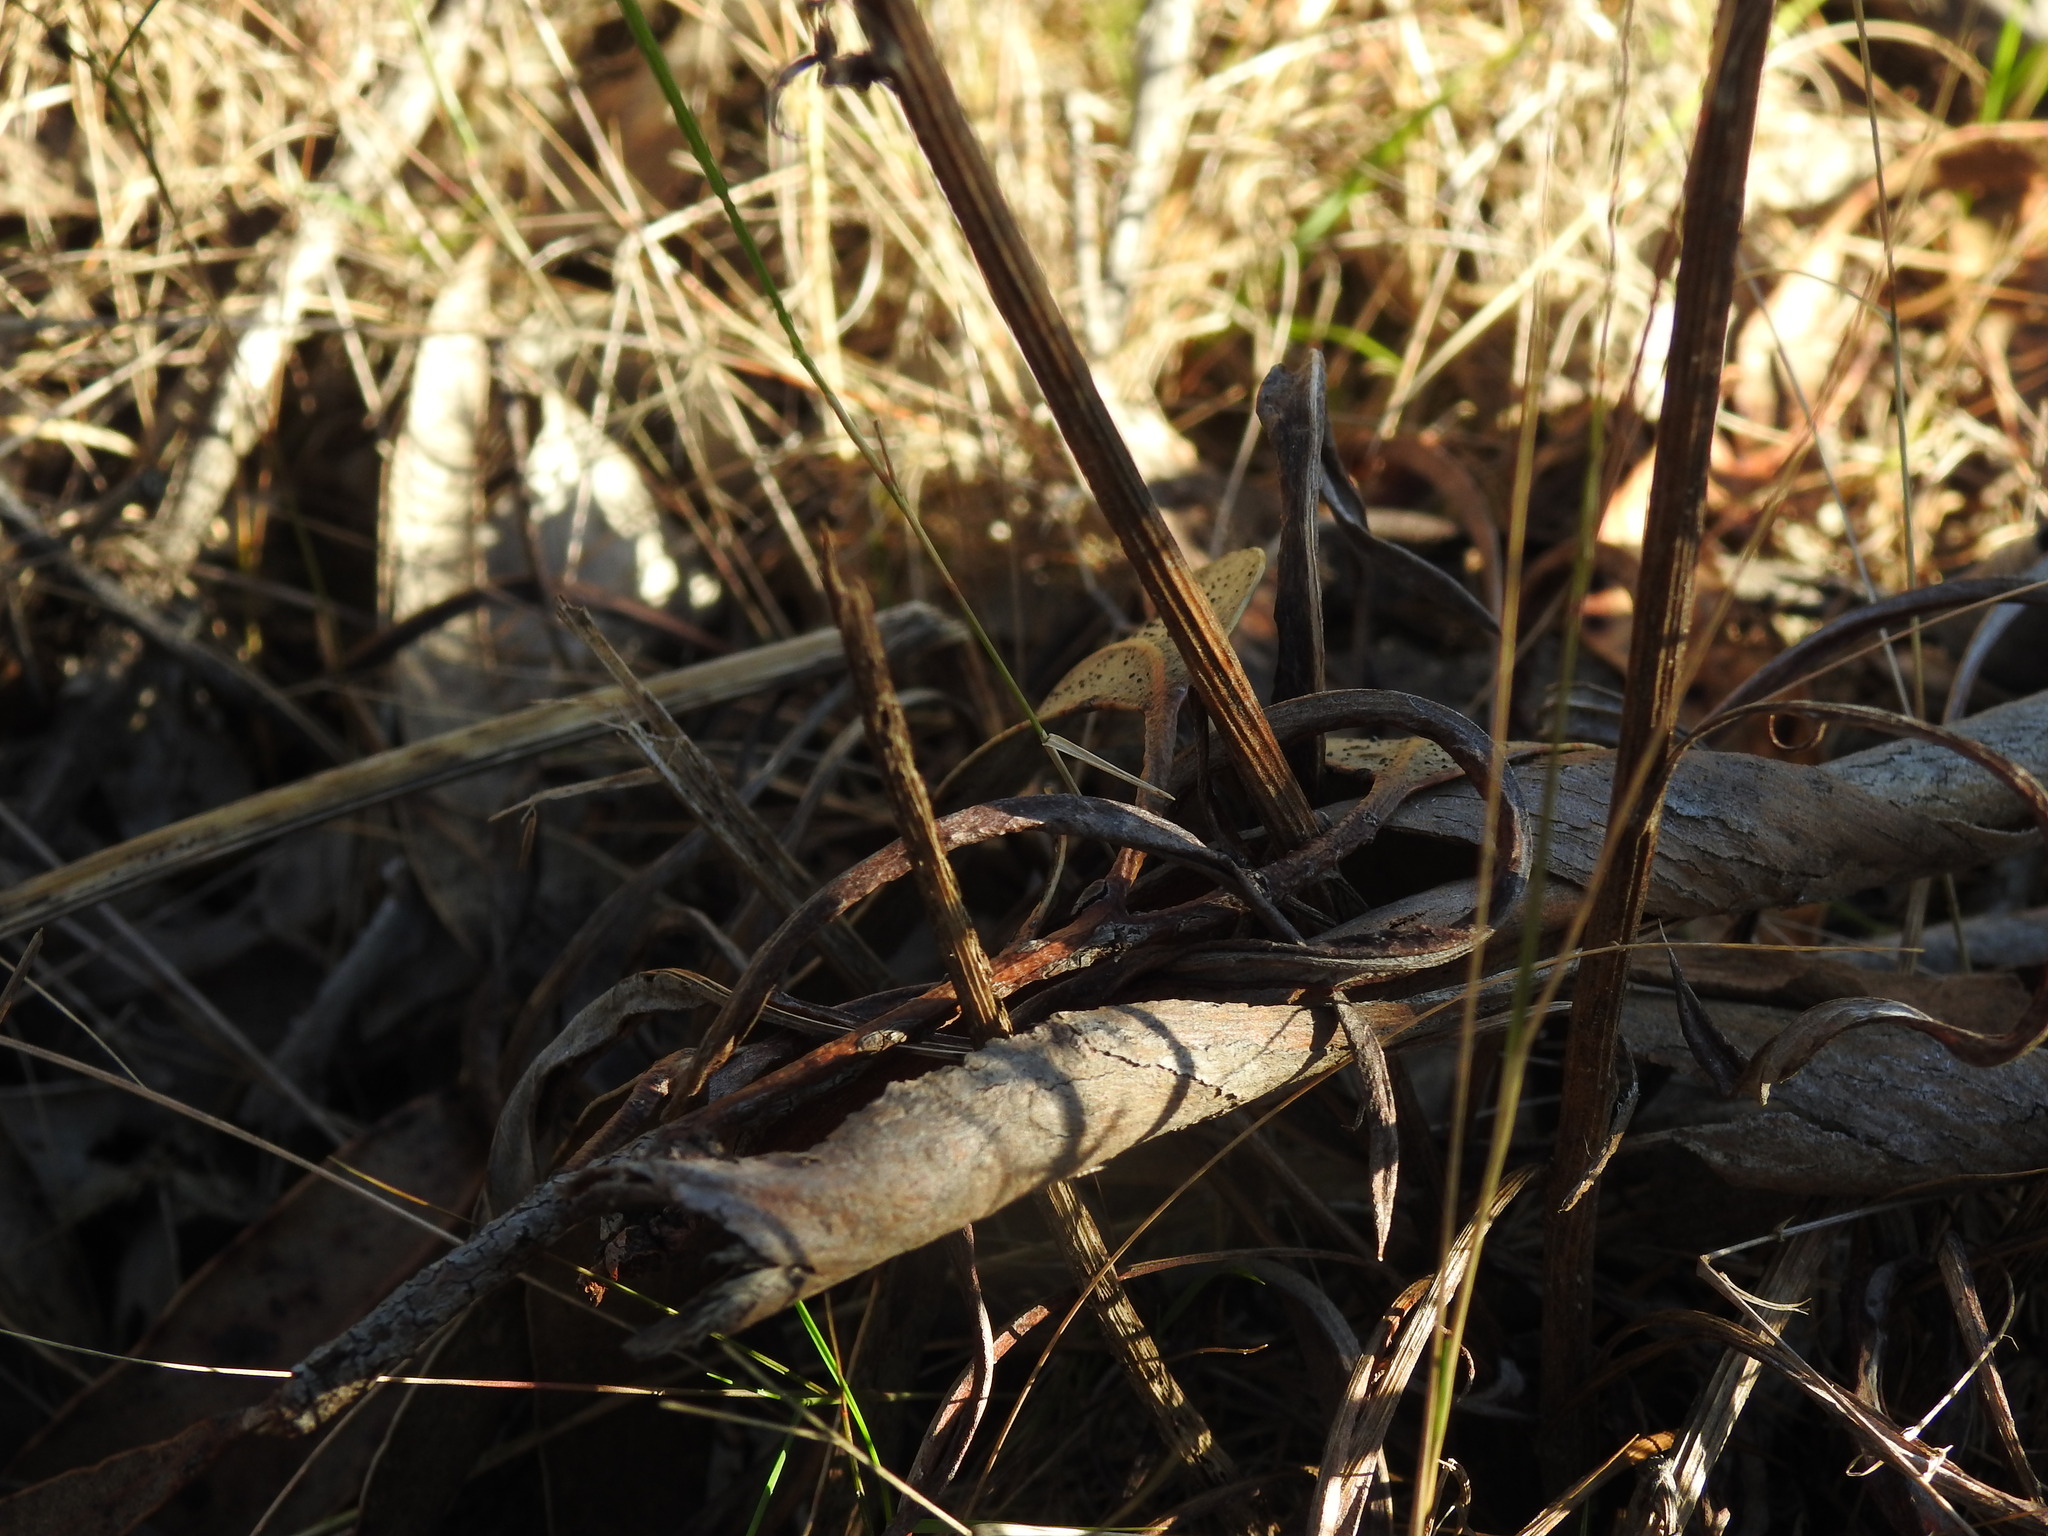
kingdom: Plantae
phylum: Tracheophyta
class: Magnoliopsida
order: Asterales
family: Asteraceae
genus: Leuzea
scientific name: Leuzea longifolia
